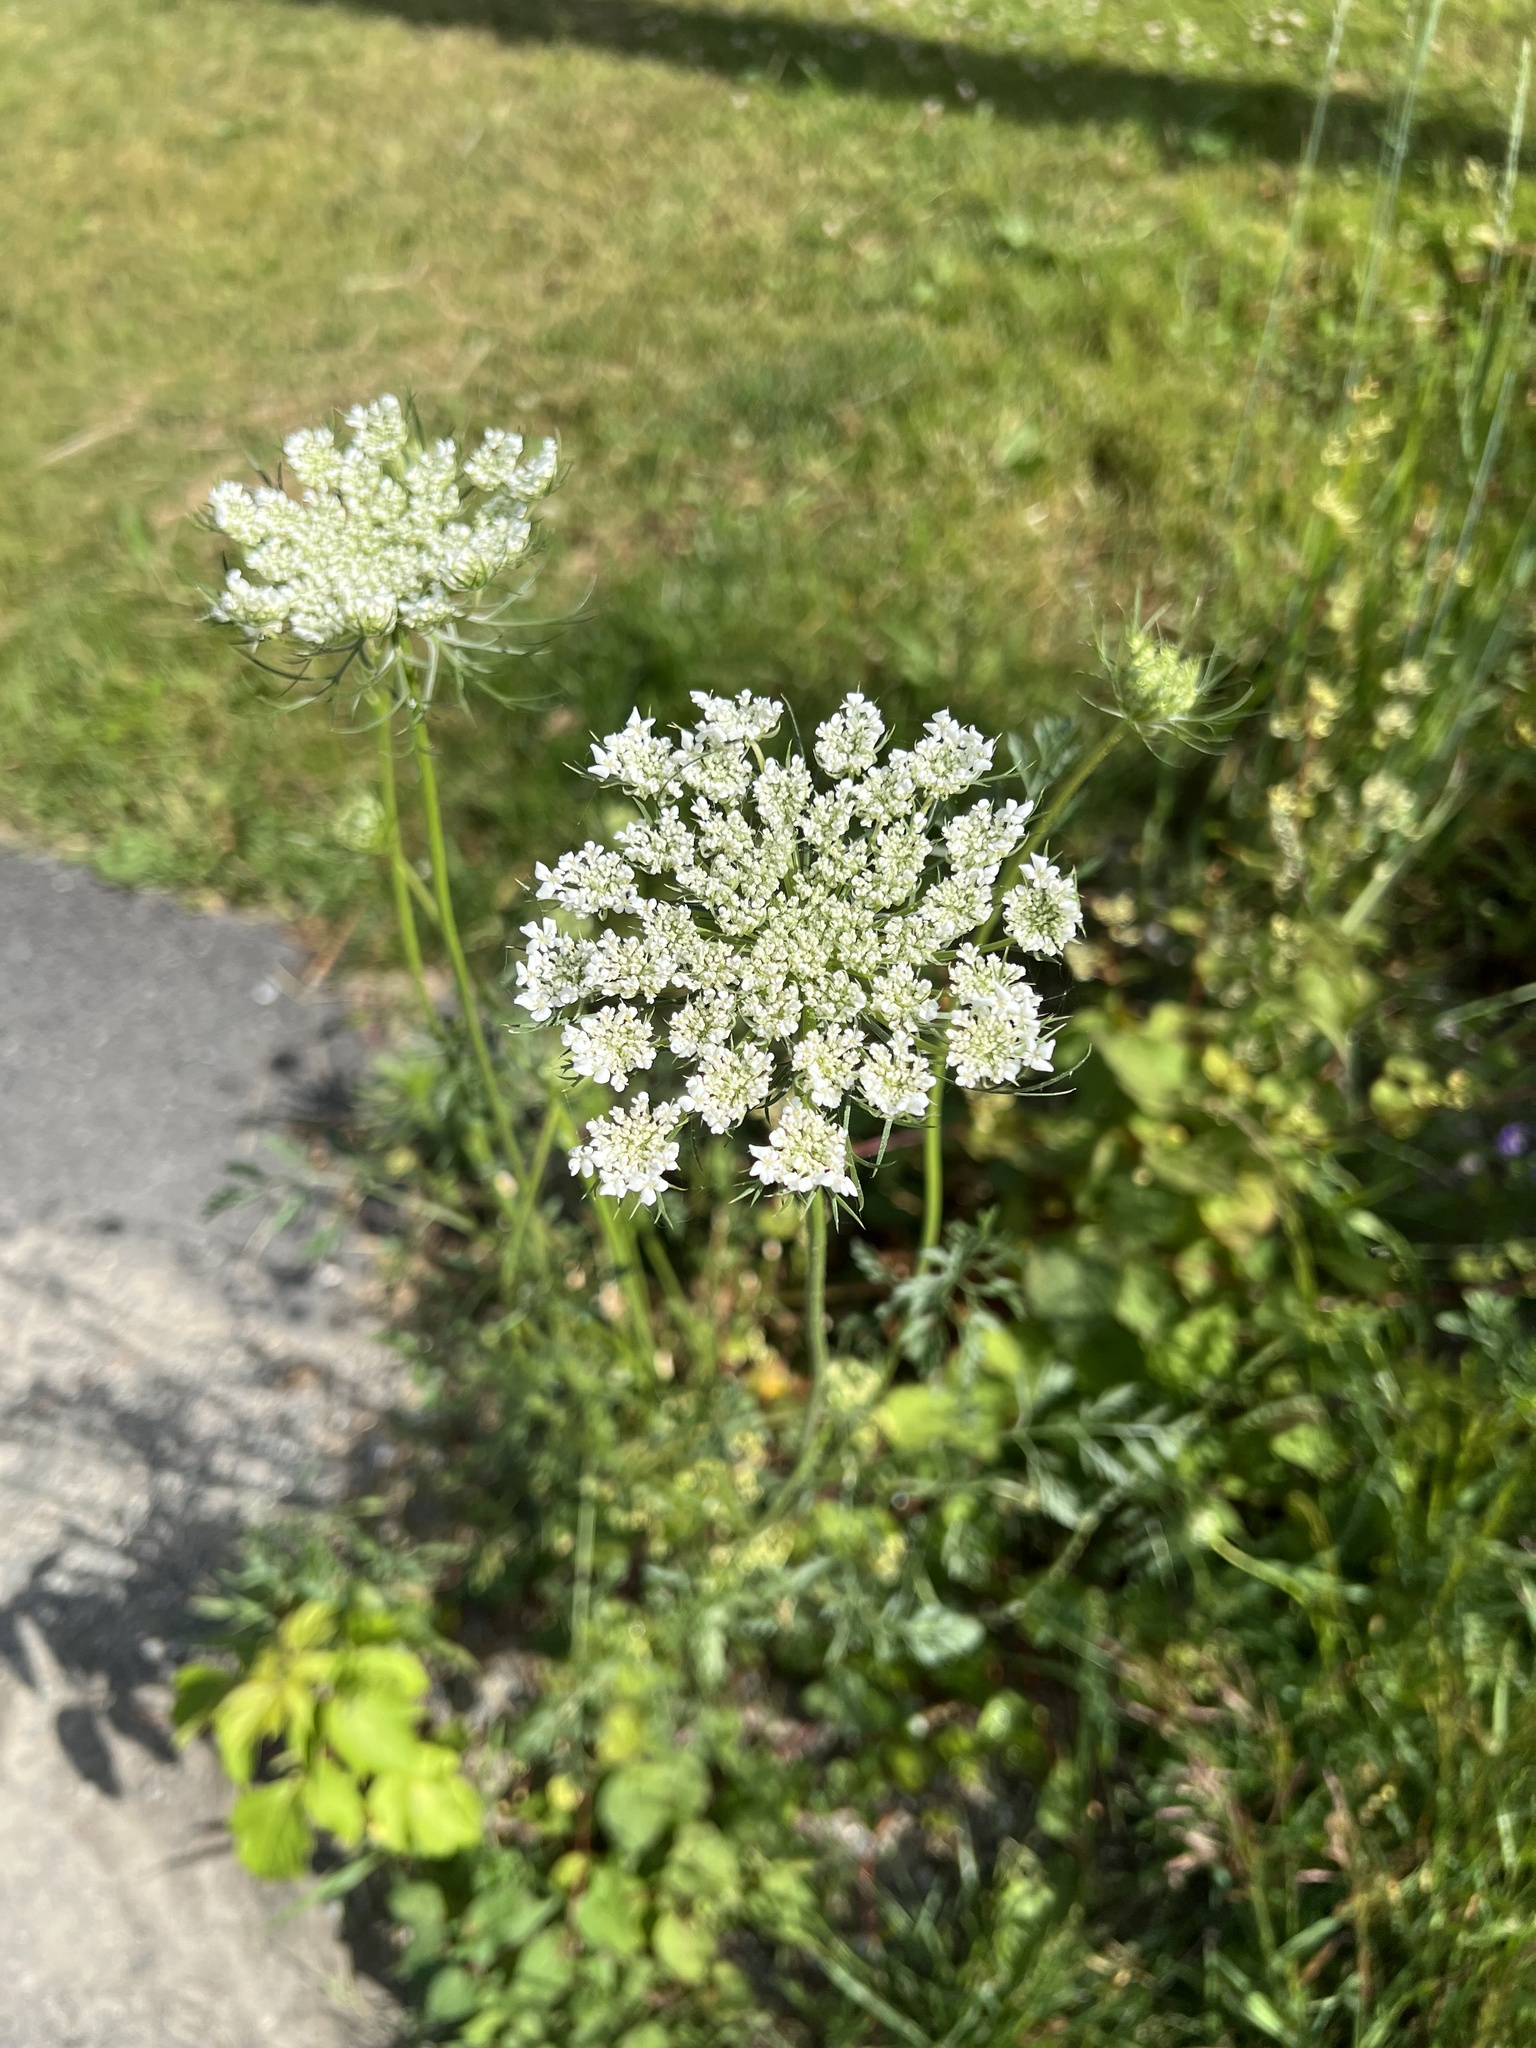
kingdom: Plantae
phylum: Tracheophyta
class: Magnoliopsida
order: Apiales
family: Apiaceae
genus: Daucus
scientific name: Daucus carota
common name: Wild carrot
